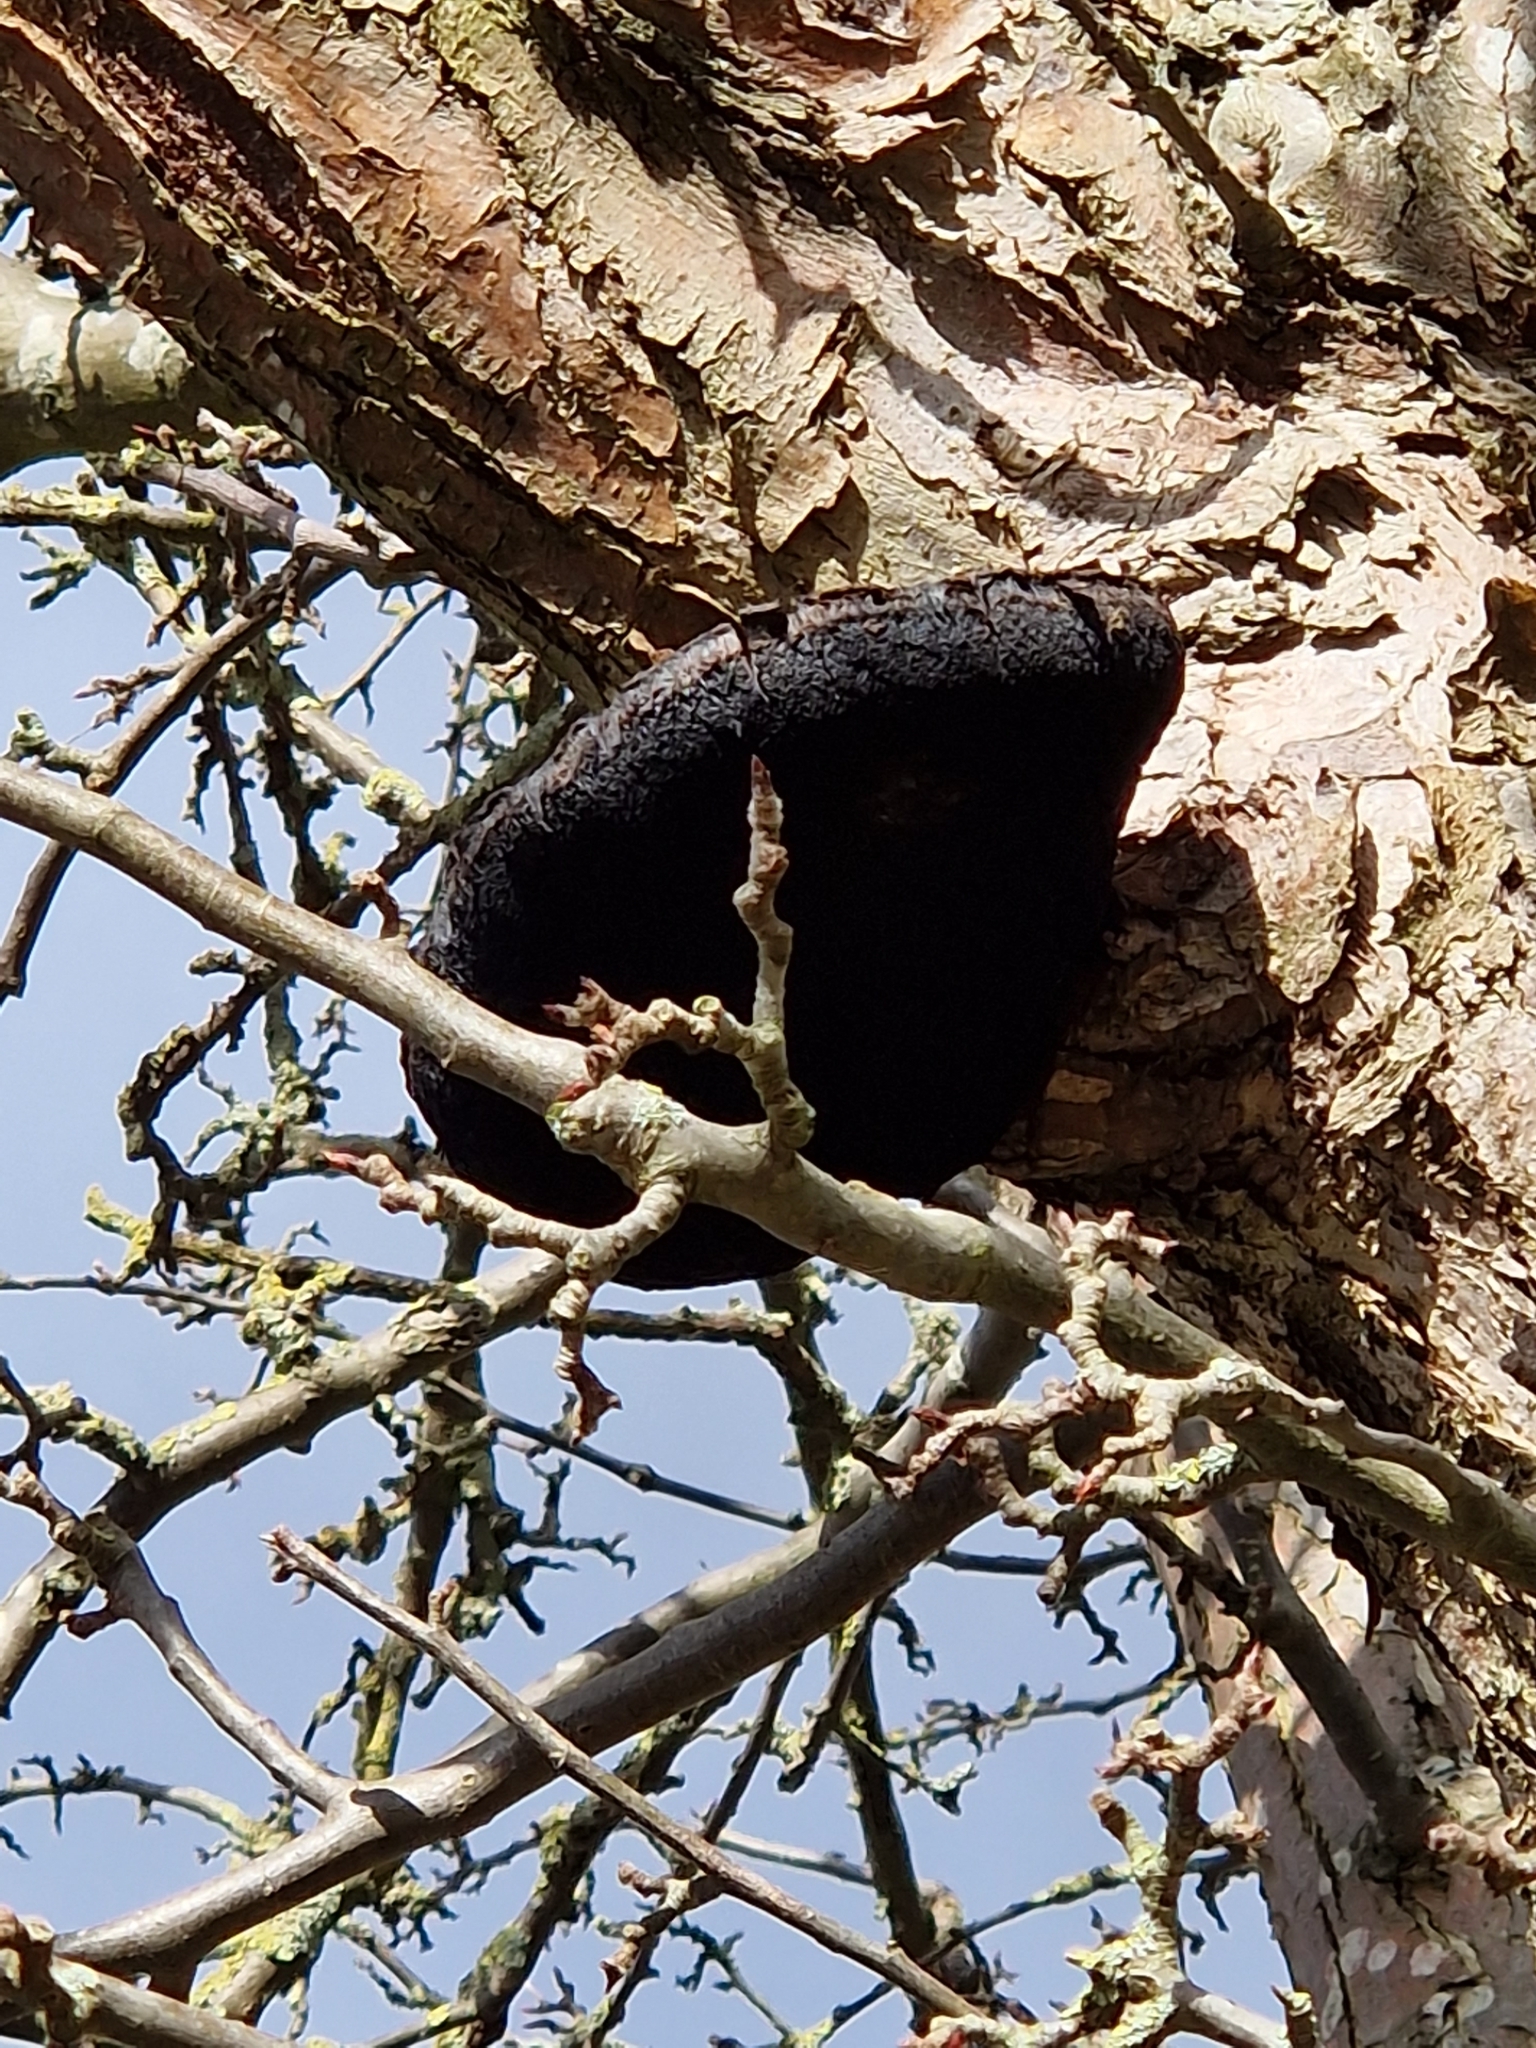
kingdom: Fungi
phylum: Basidiomycota
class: Agaricomycetes
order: Hymenochaetales
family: Hymenochaetaceae
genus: Inonotus
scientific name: Inonotus hispidus
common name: Shaggy bracket
